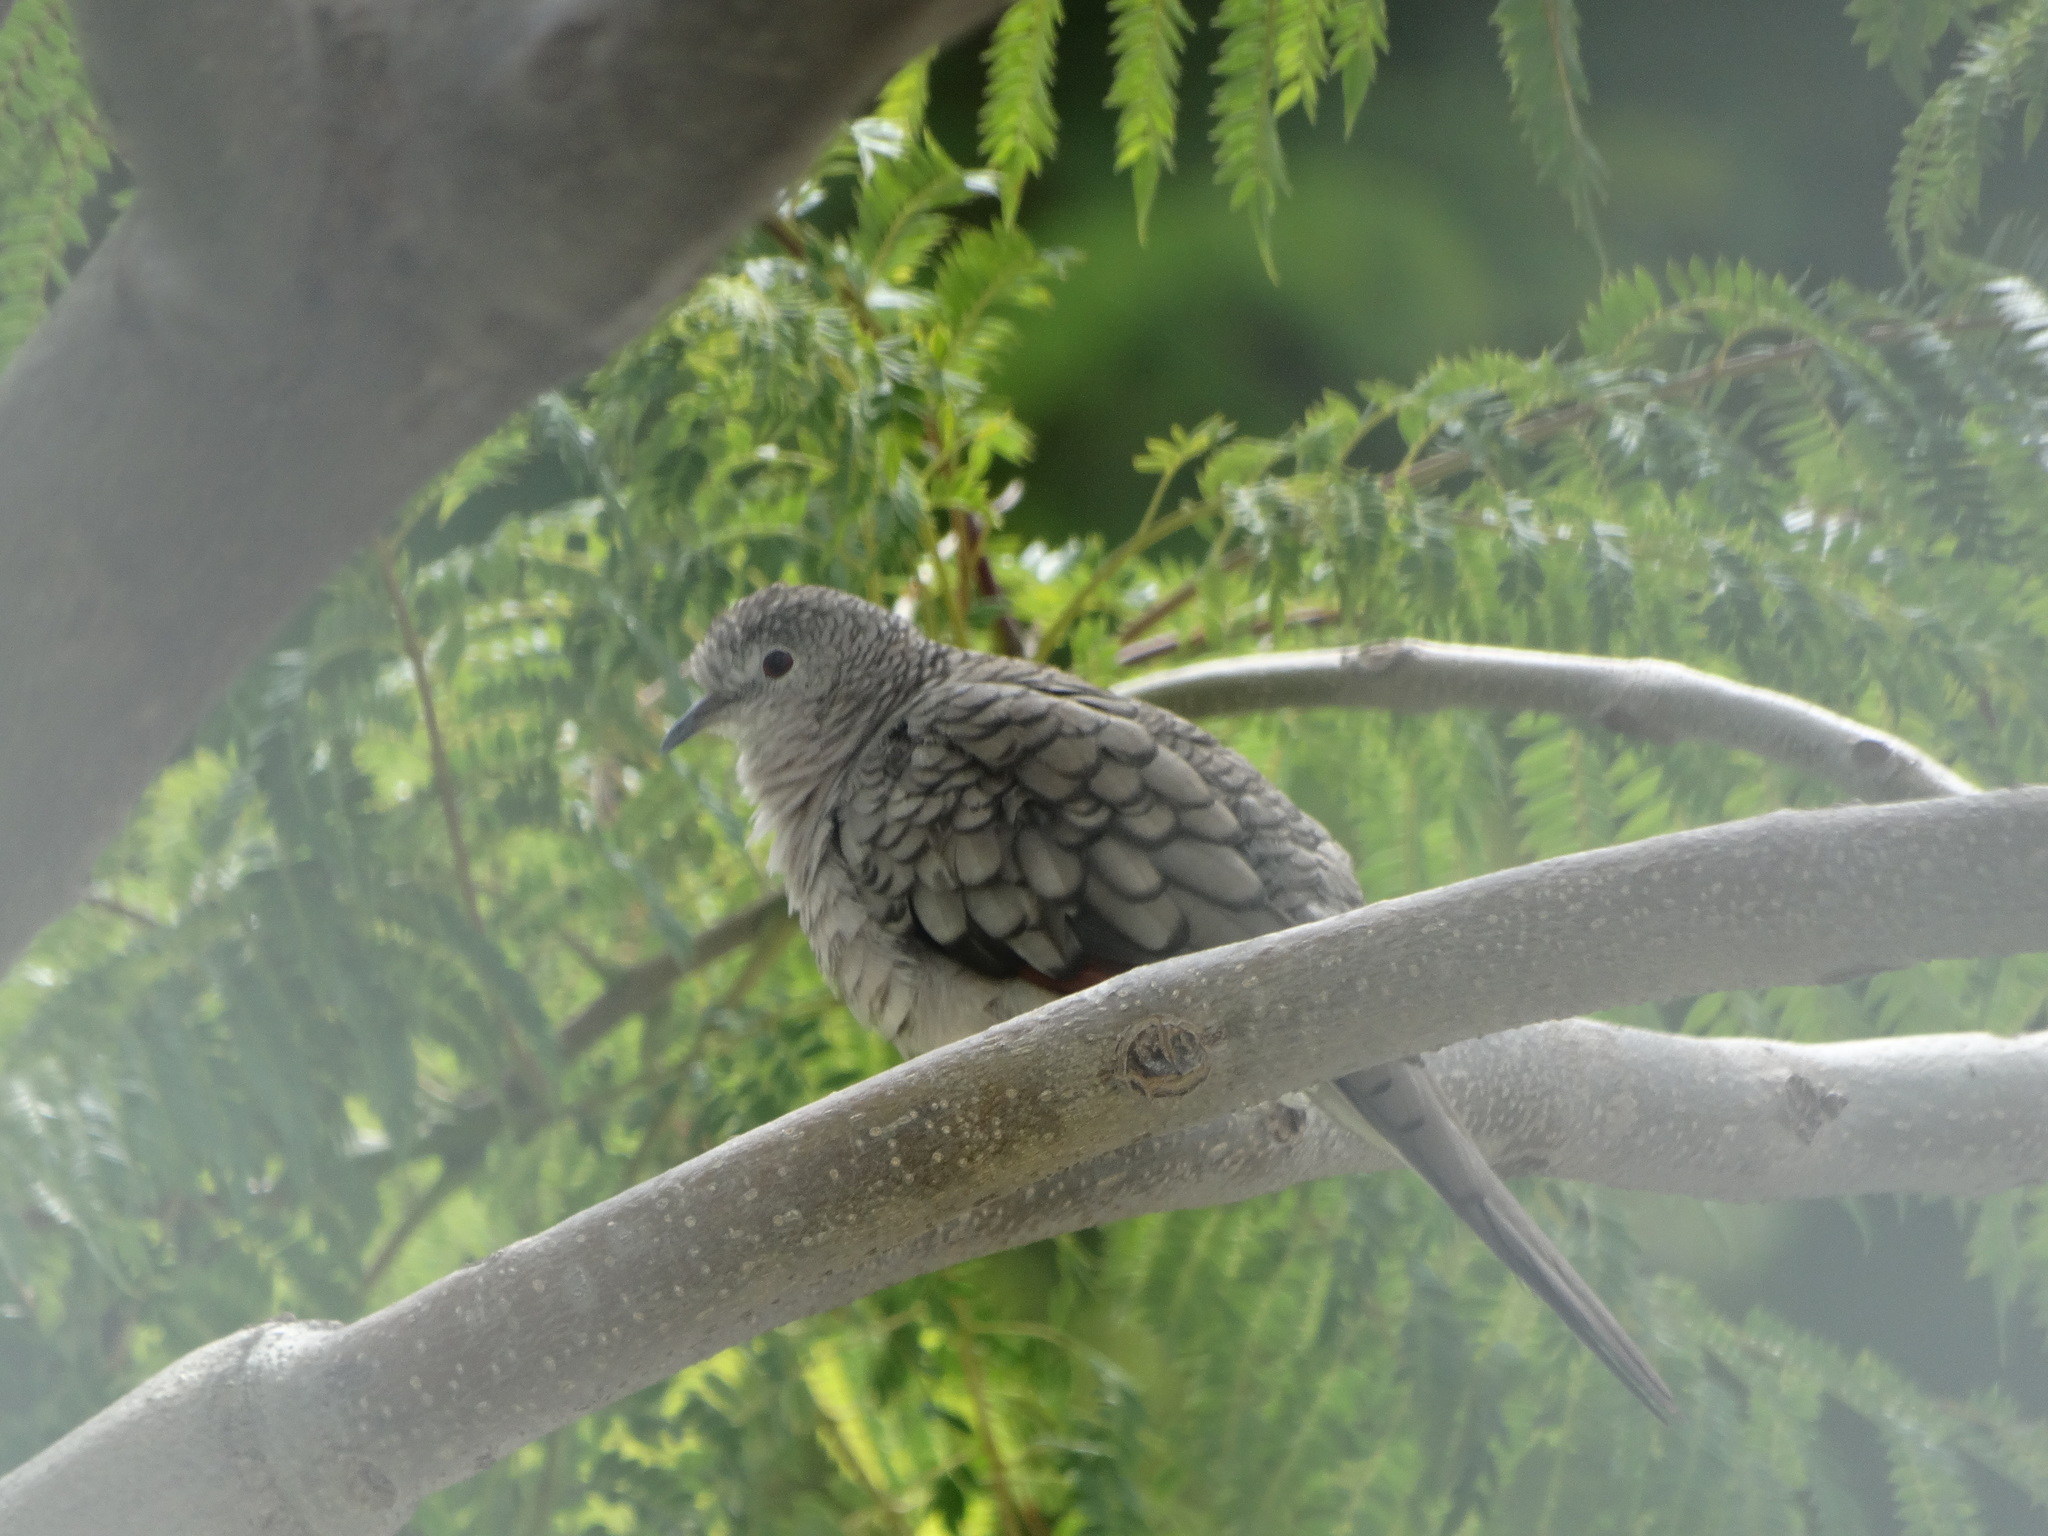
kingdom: Animalia
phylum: Chordata
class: Aves
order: Columbiformes
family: Columbidae
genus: Columbina
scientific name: Columbina inca
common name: Inca dove
